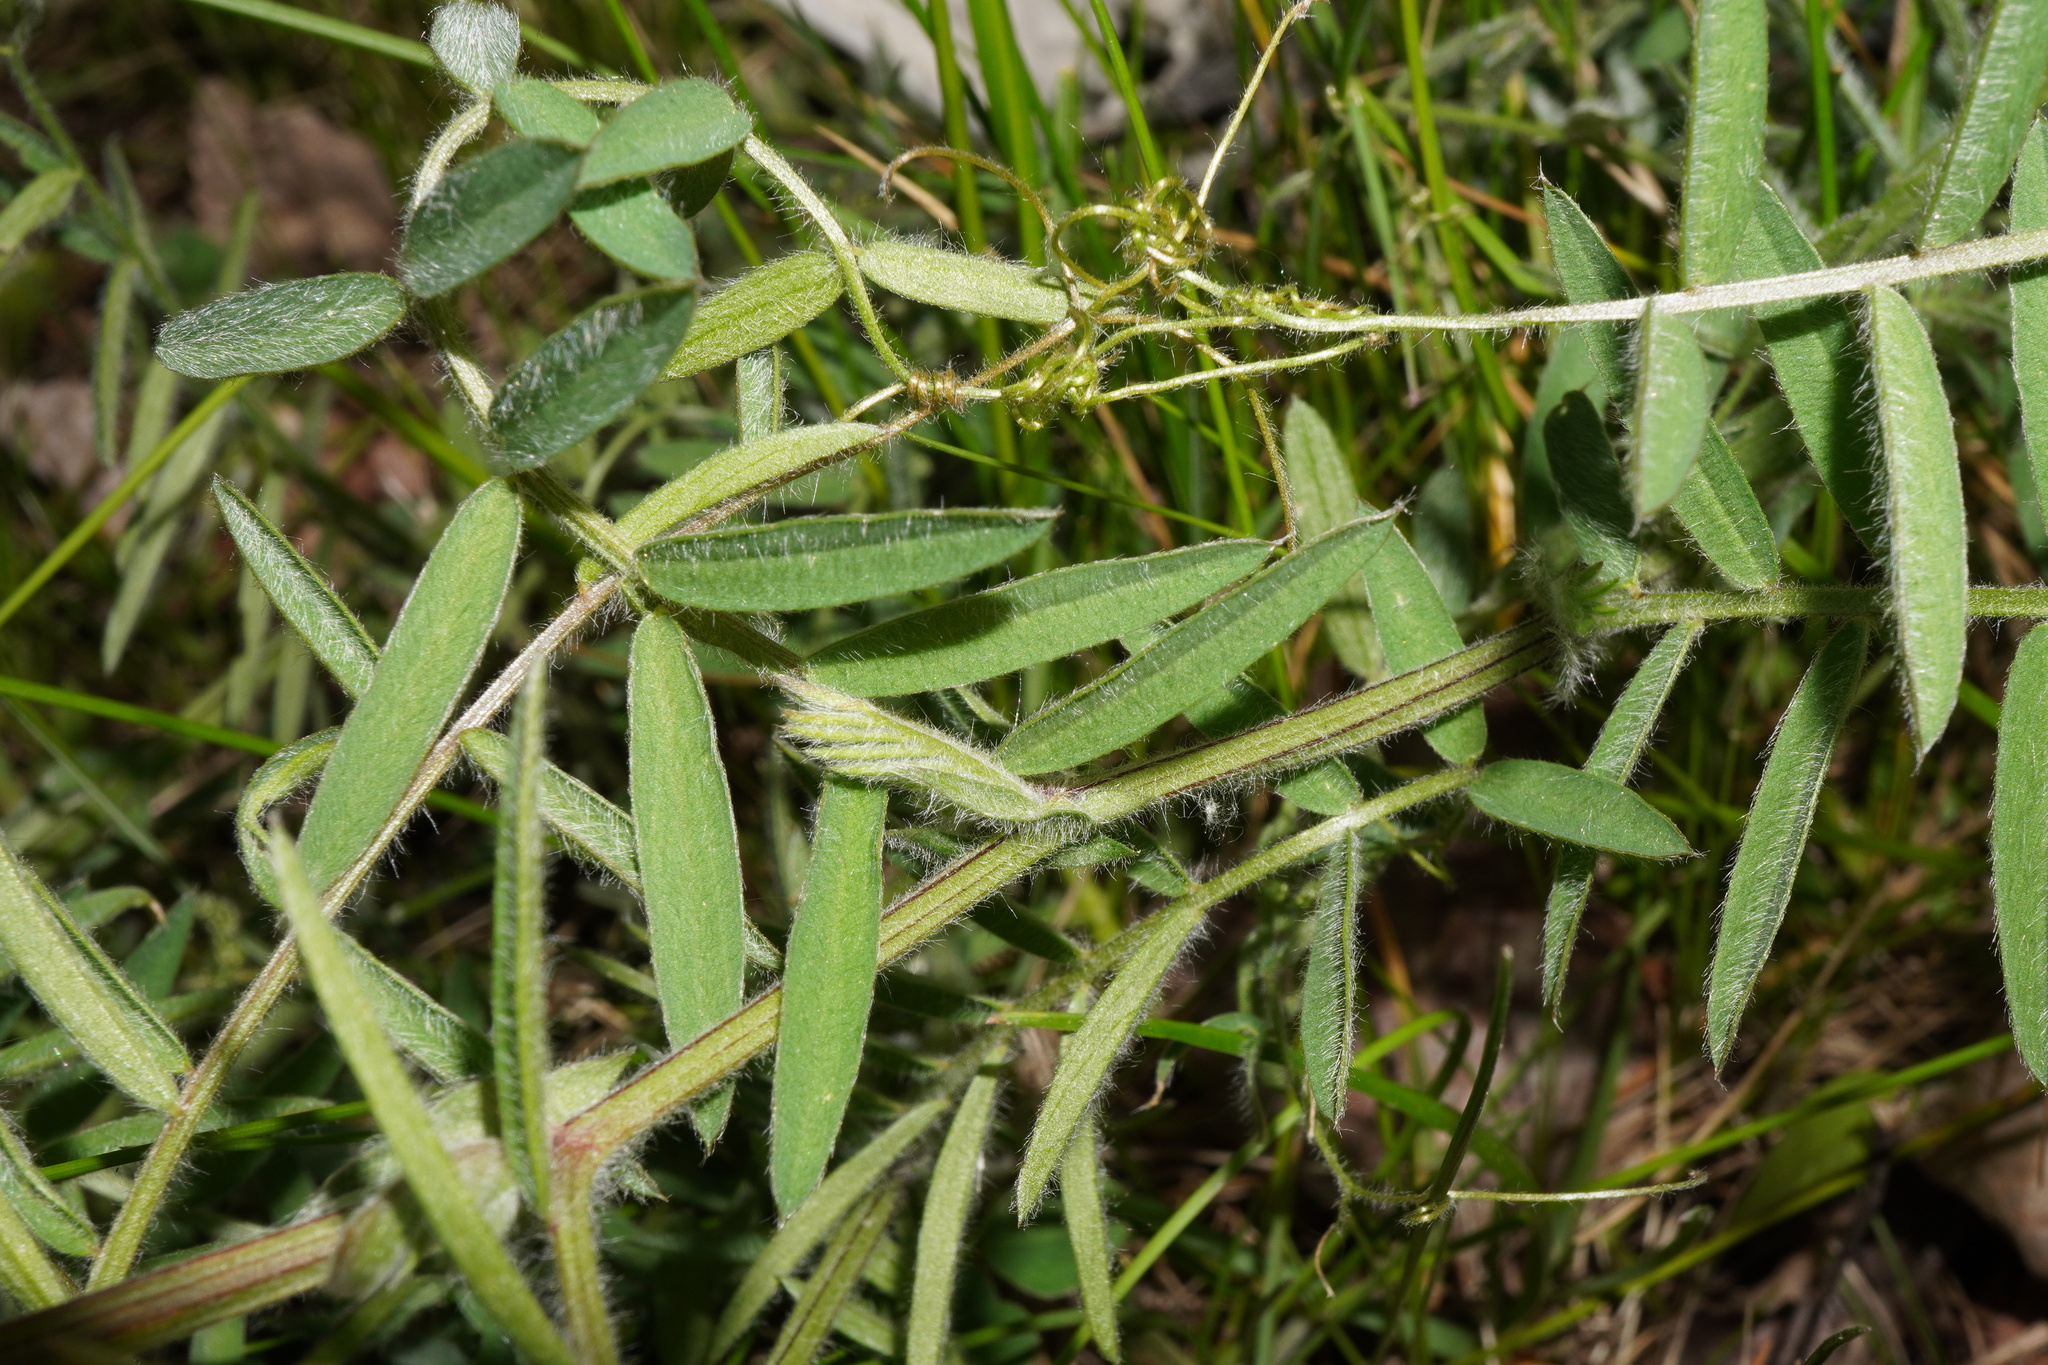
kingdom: Plantae
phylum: Tracheophyta
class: Magnoliopsida
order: Fabales
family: Fabaceae
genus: Vicia
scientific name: Vicia villosa
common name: Fodder vetch
